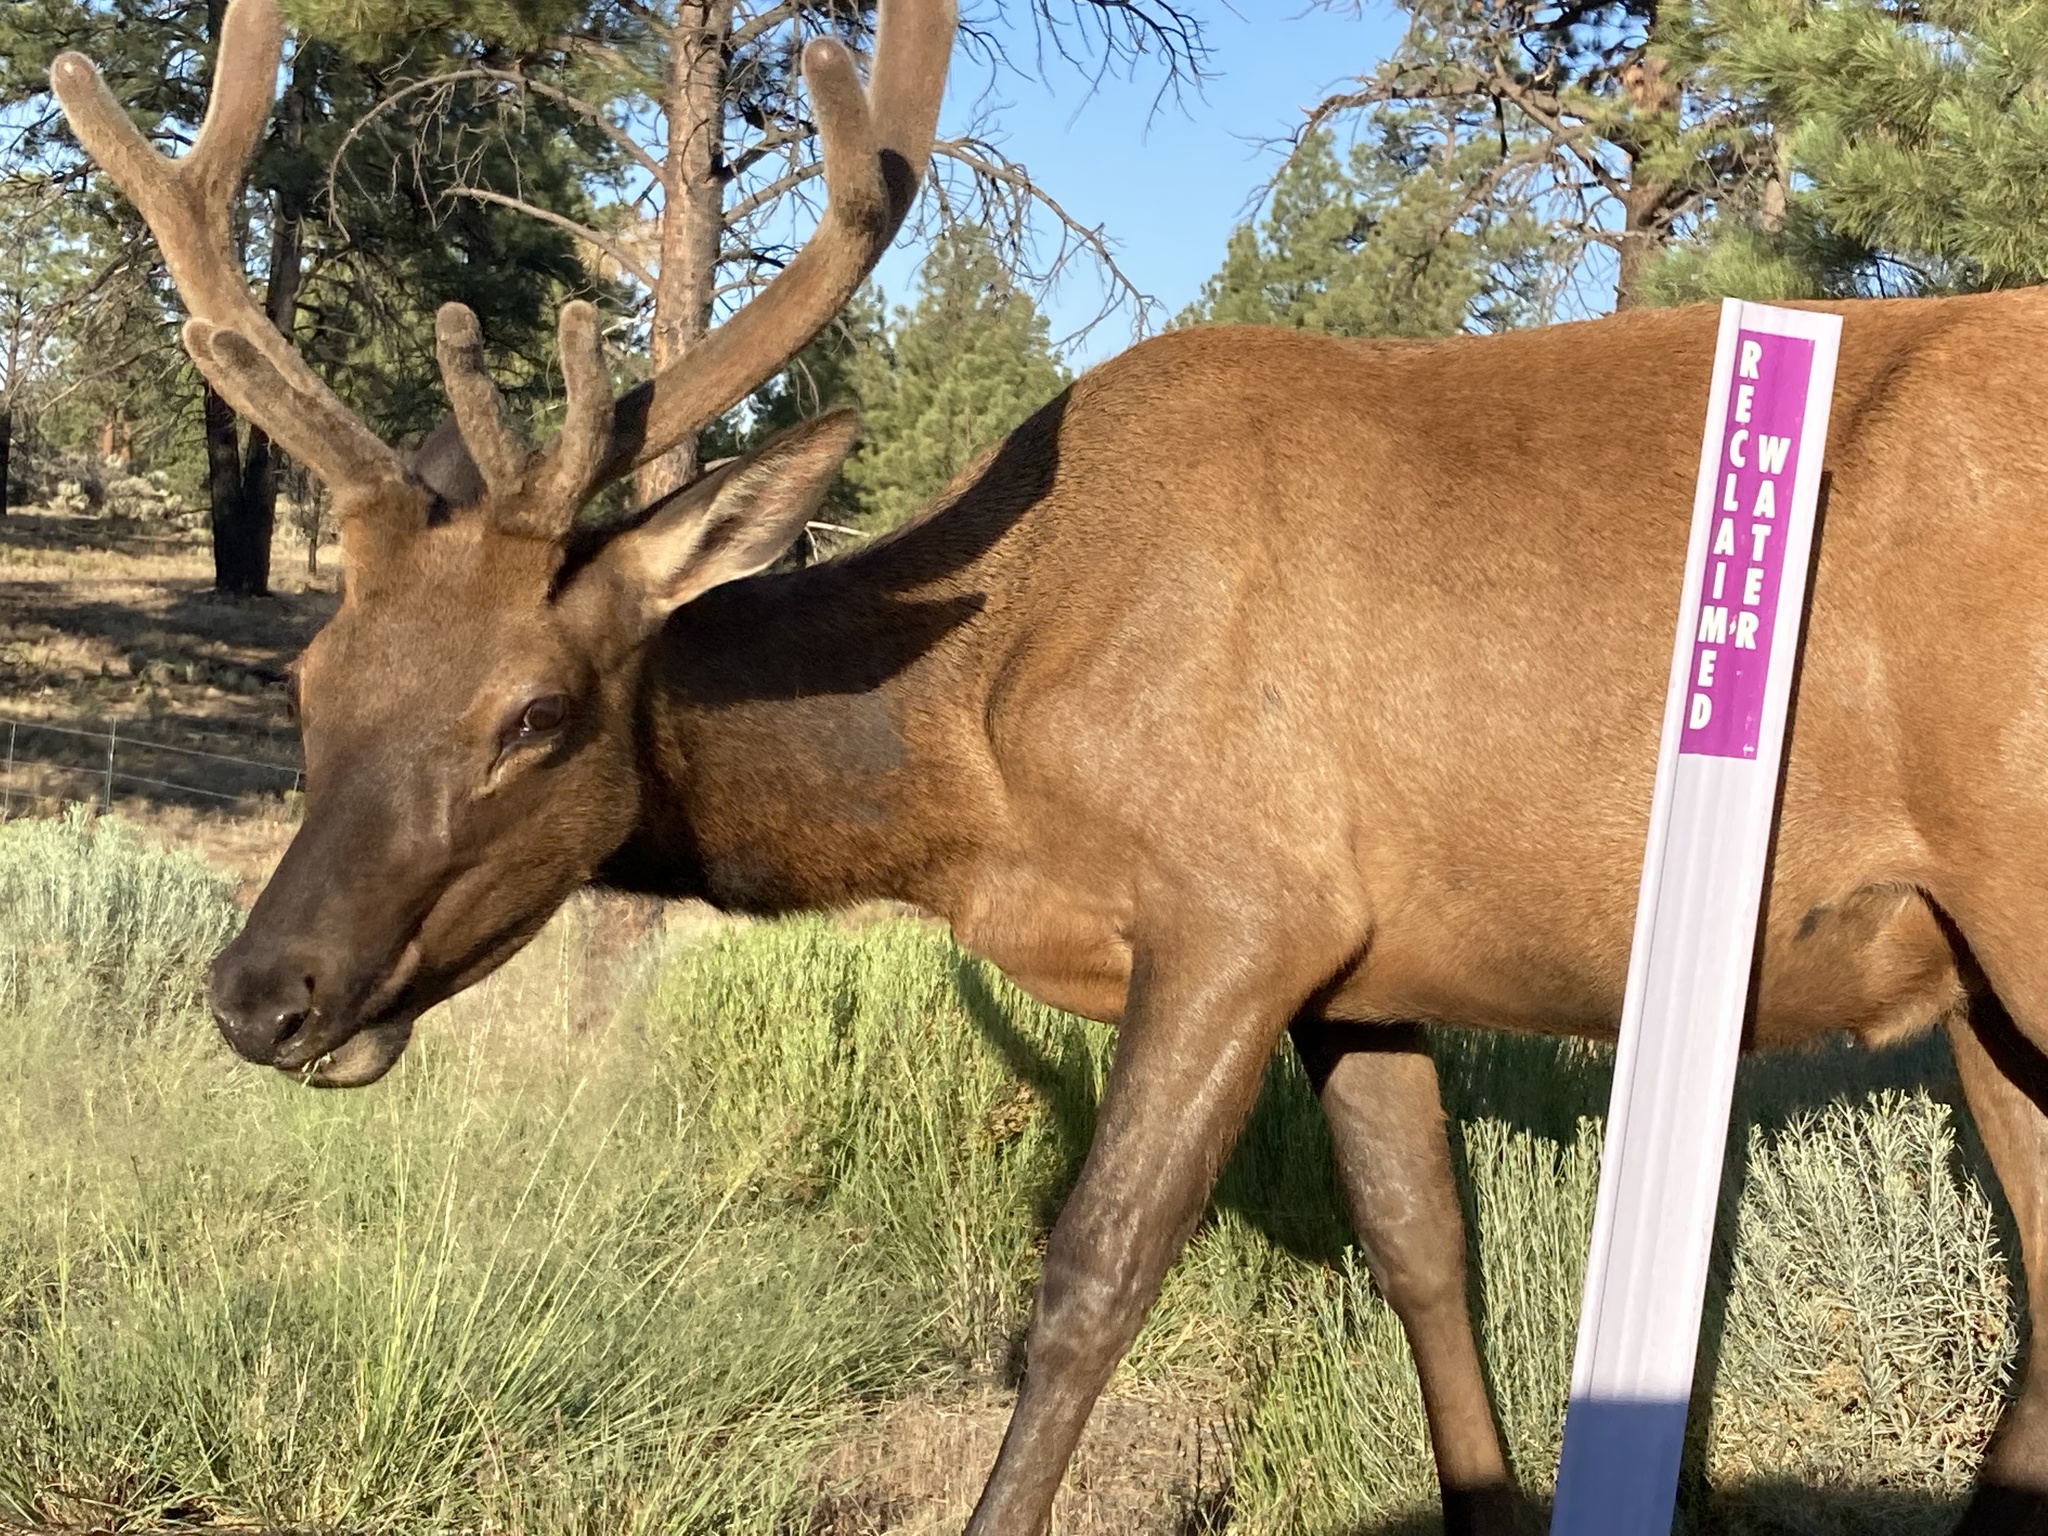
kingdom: Animalia
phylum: Chordata
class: Mammalia
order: Artiodactyla
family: Cervidae
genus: Cervus
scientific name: Cervus elaphus
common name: Red deer
